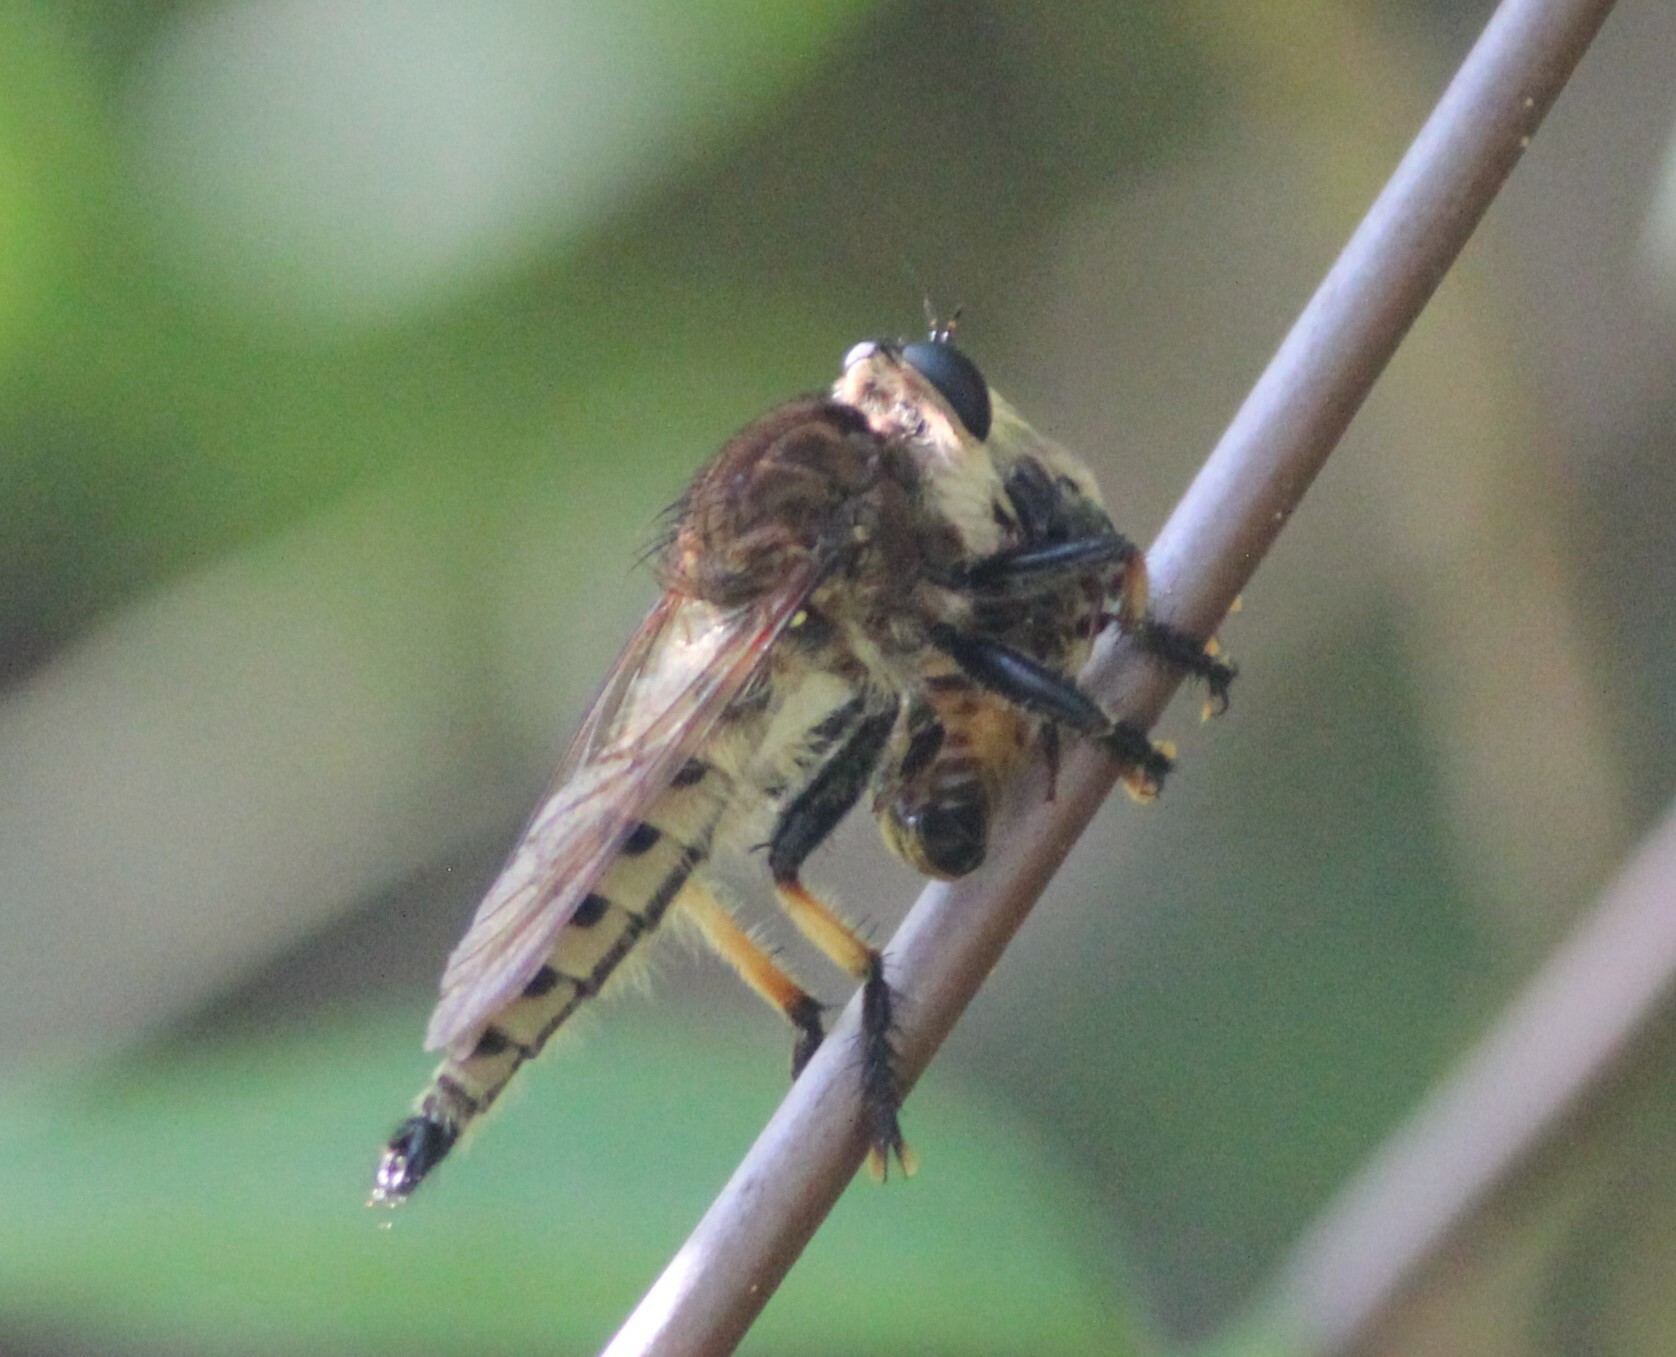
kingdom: Animalia
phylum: Arthropoda
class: Insecta
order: Diptera
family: Asilidae
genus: Promachus
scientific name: Promachus rufipes
